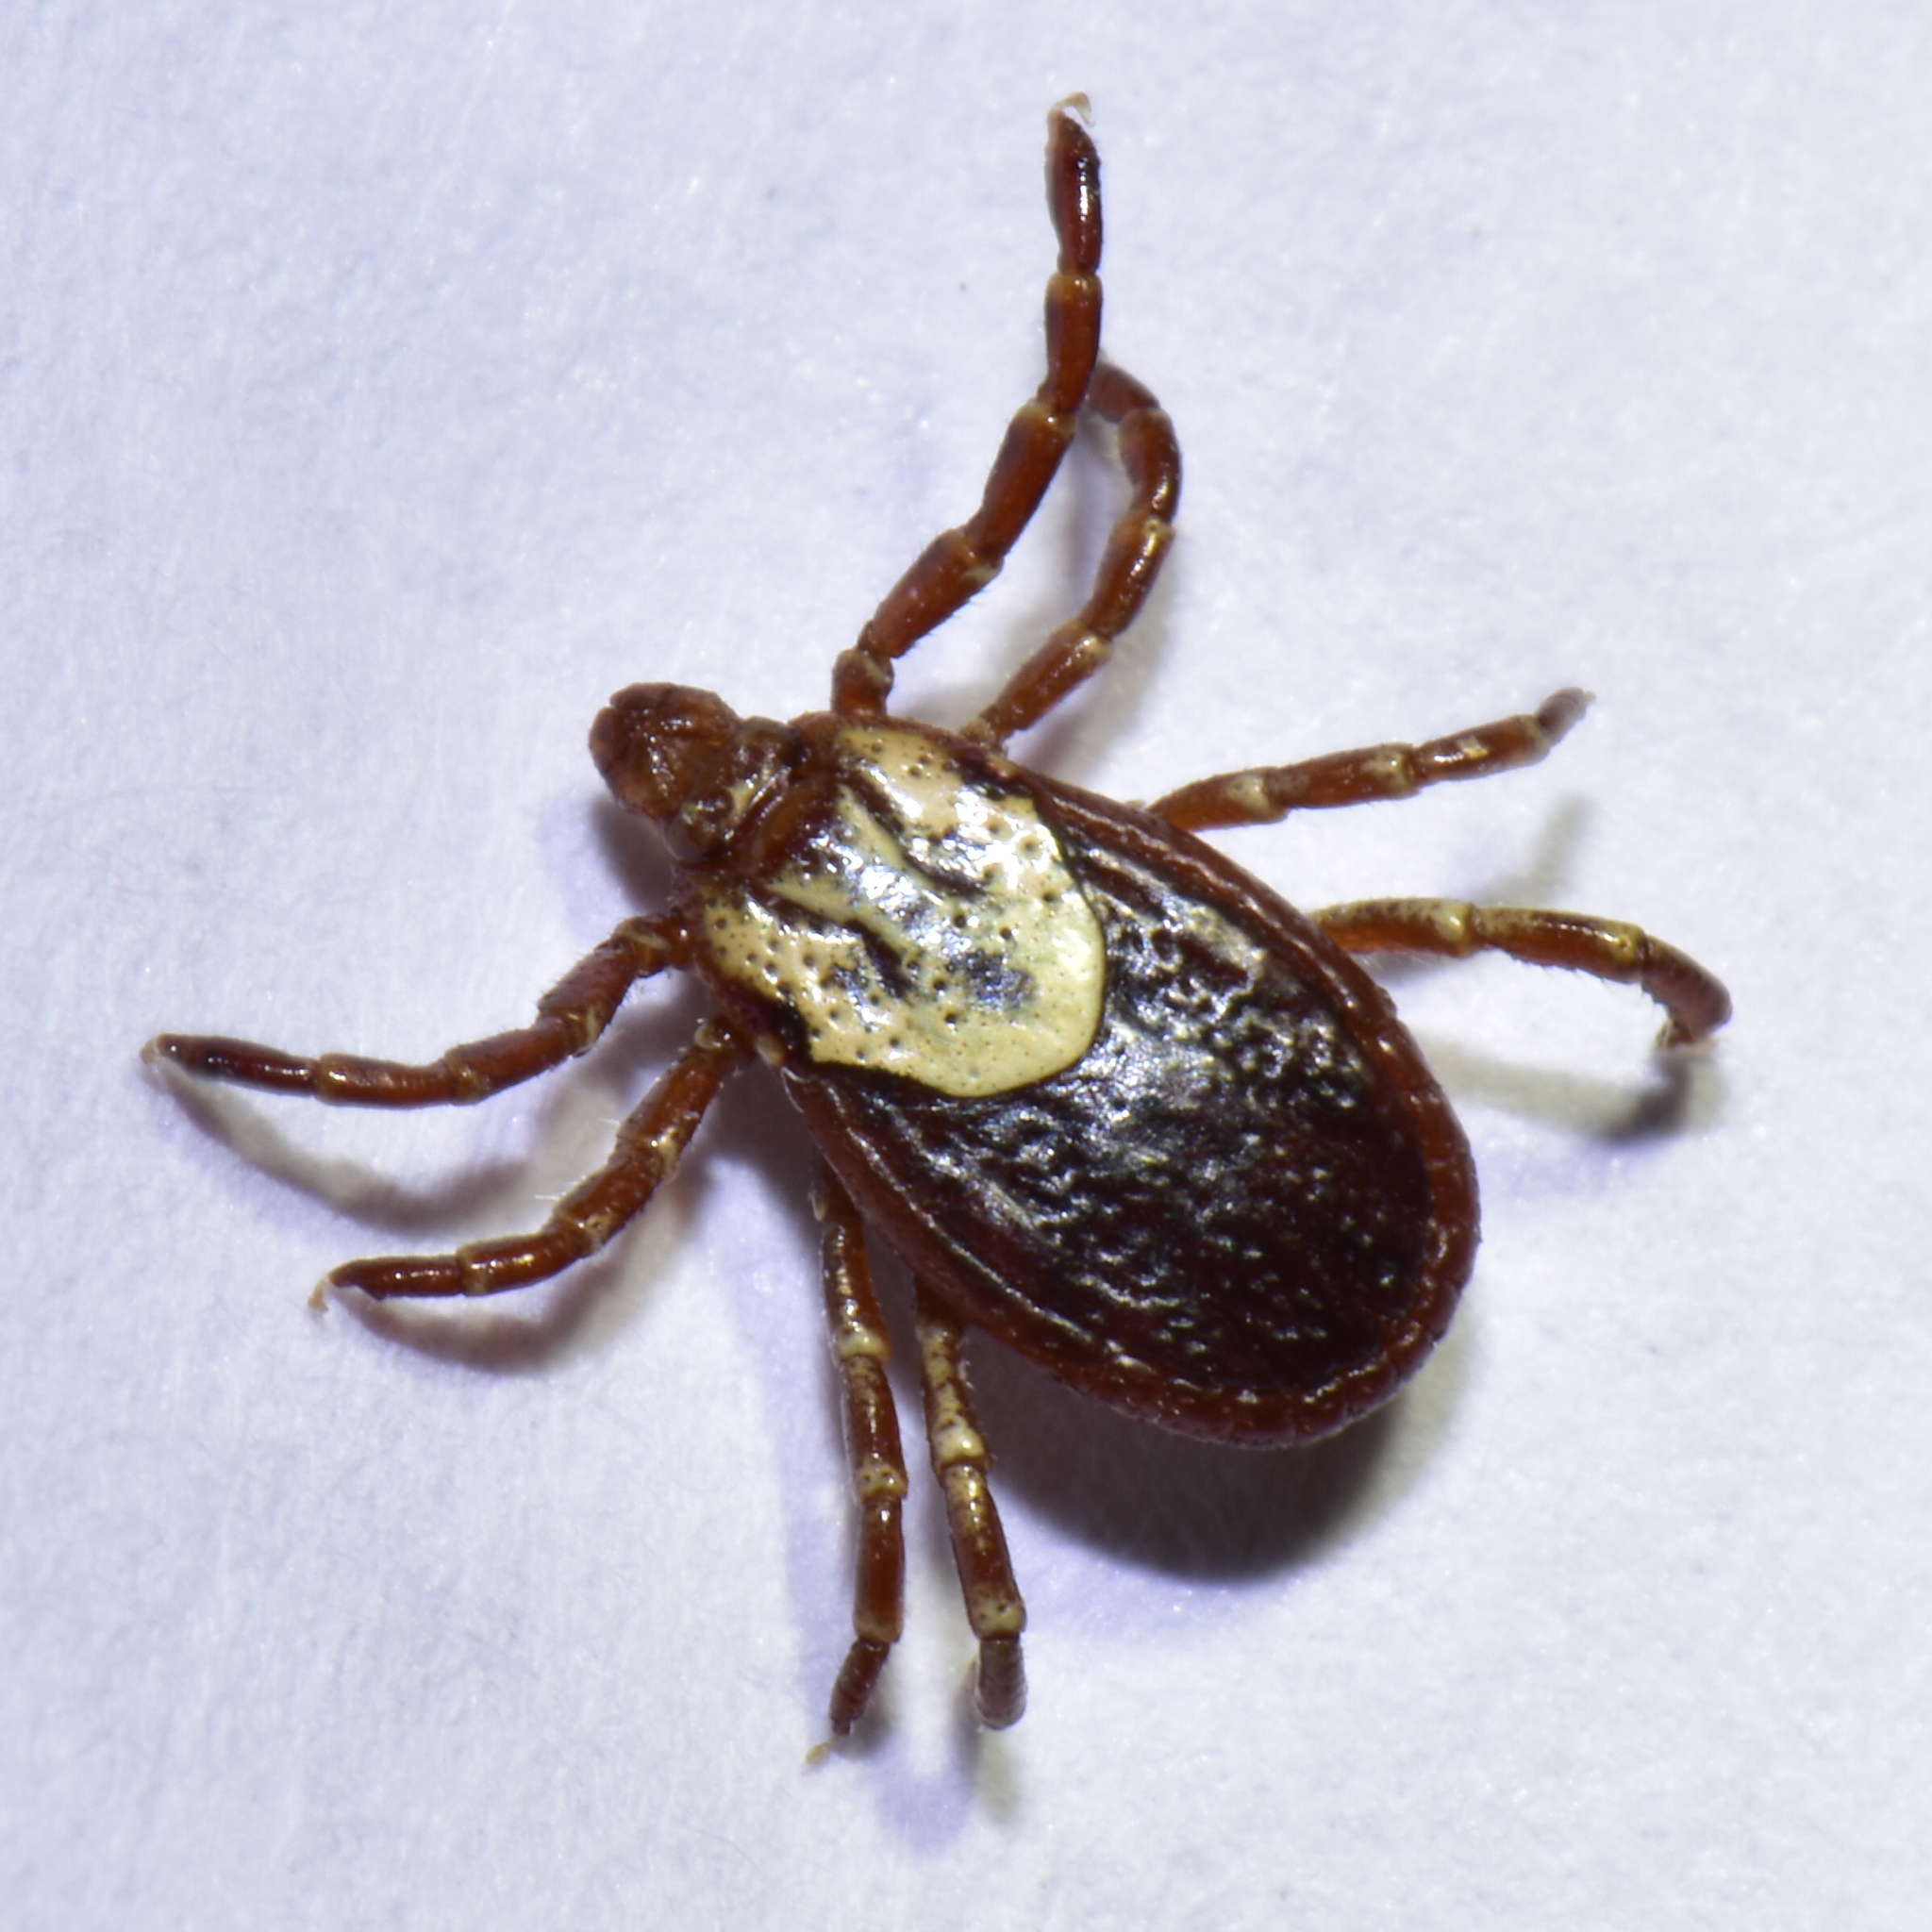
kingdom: Animalia
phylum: Arthropoda
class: Arachnida
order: Ixodida
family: Ixodidae
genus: Dermacentor
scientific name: Dermacentor variabilis
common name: American dog tick
